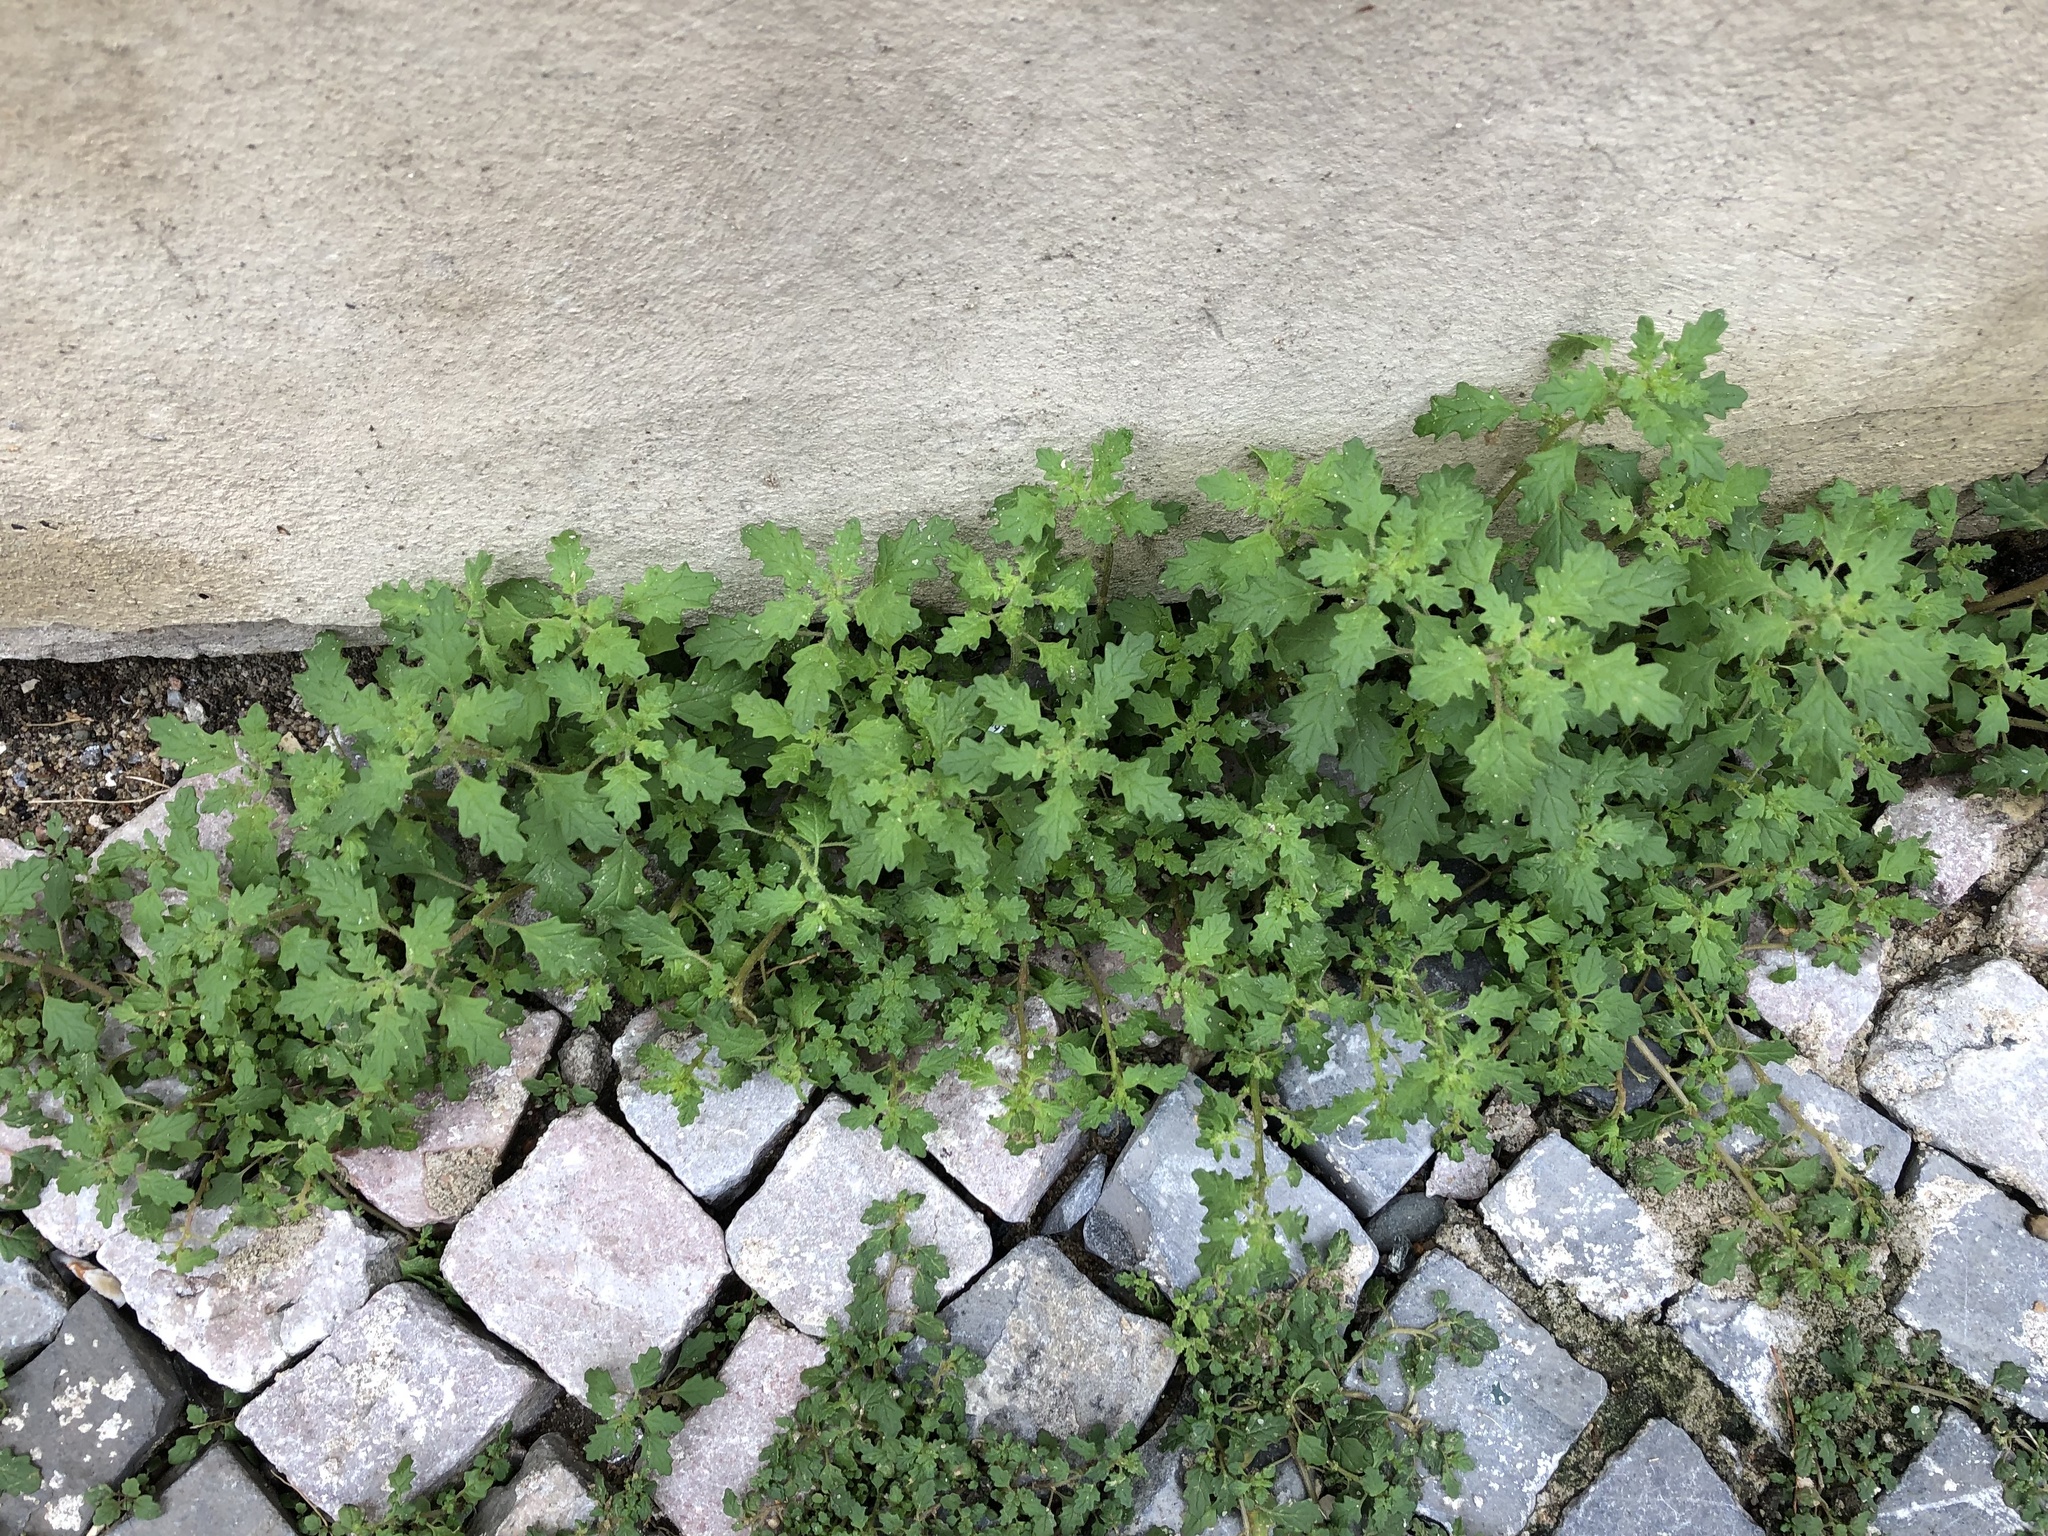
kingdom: Plantae
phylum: Tracheophyta
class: Magnoliopsida
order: Caryophyllales
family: Amaranthaceae
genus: Dysphania
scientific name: Dysphania pumilio
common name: Clammy goosefoot
